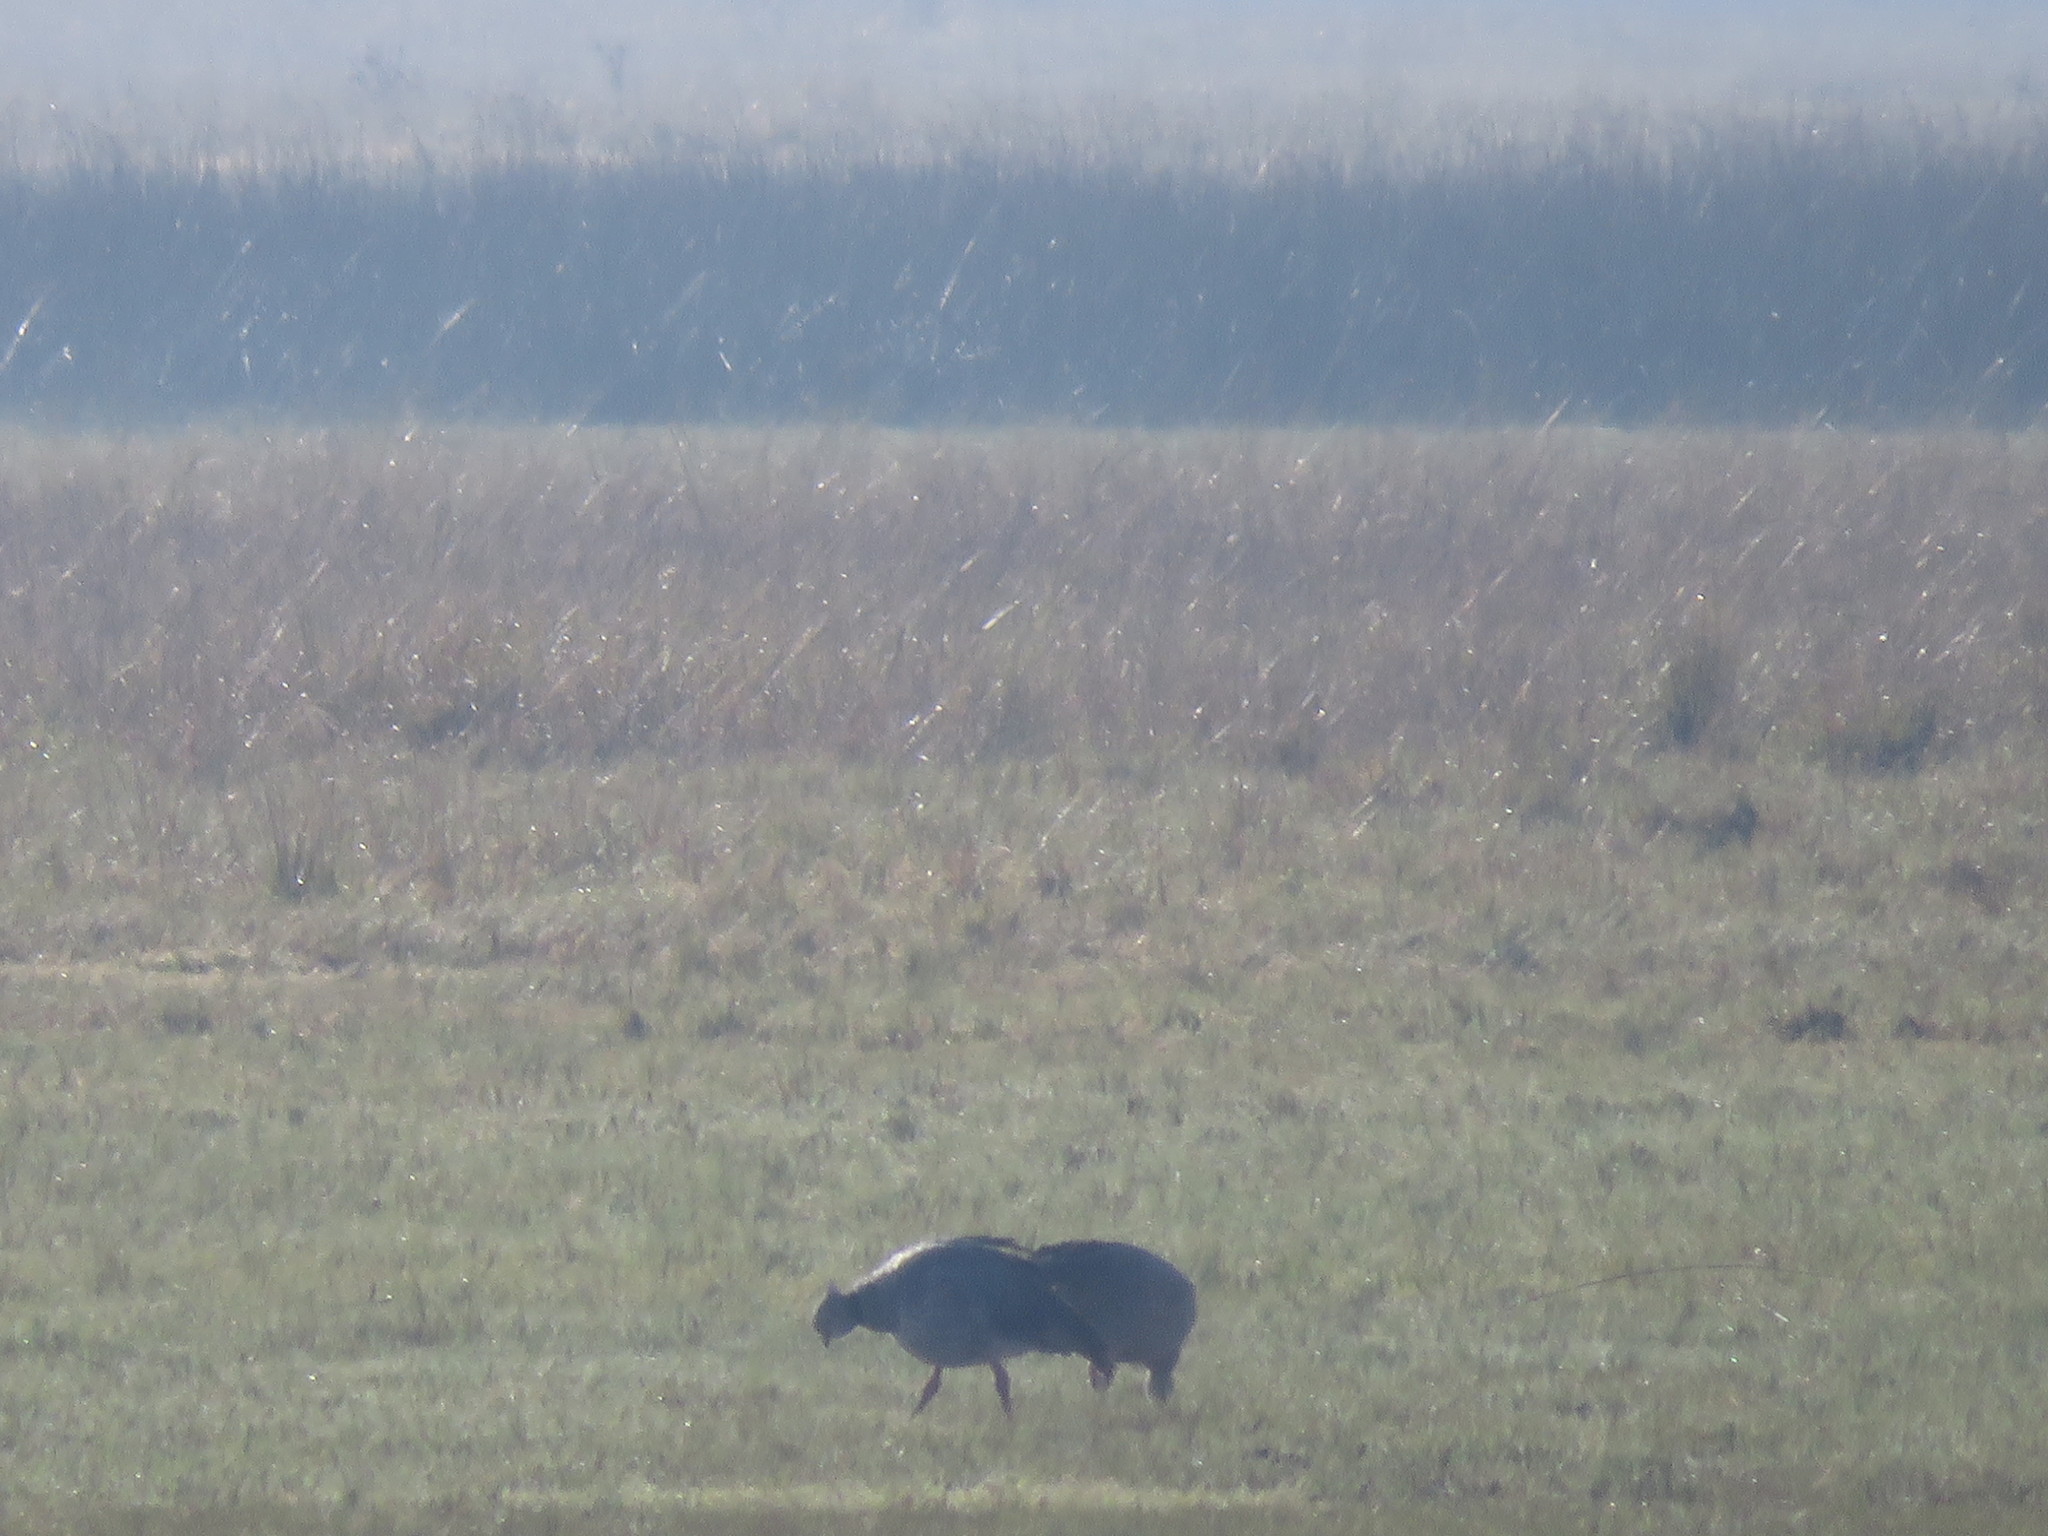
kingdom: Animalia
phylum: Chordata
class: Aves
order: Anseriformes
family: Anhimidae
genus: Chauna
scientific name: Chauna torquata
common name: Southern screamer
